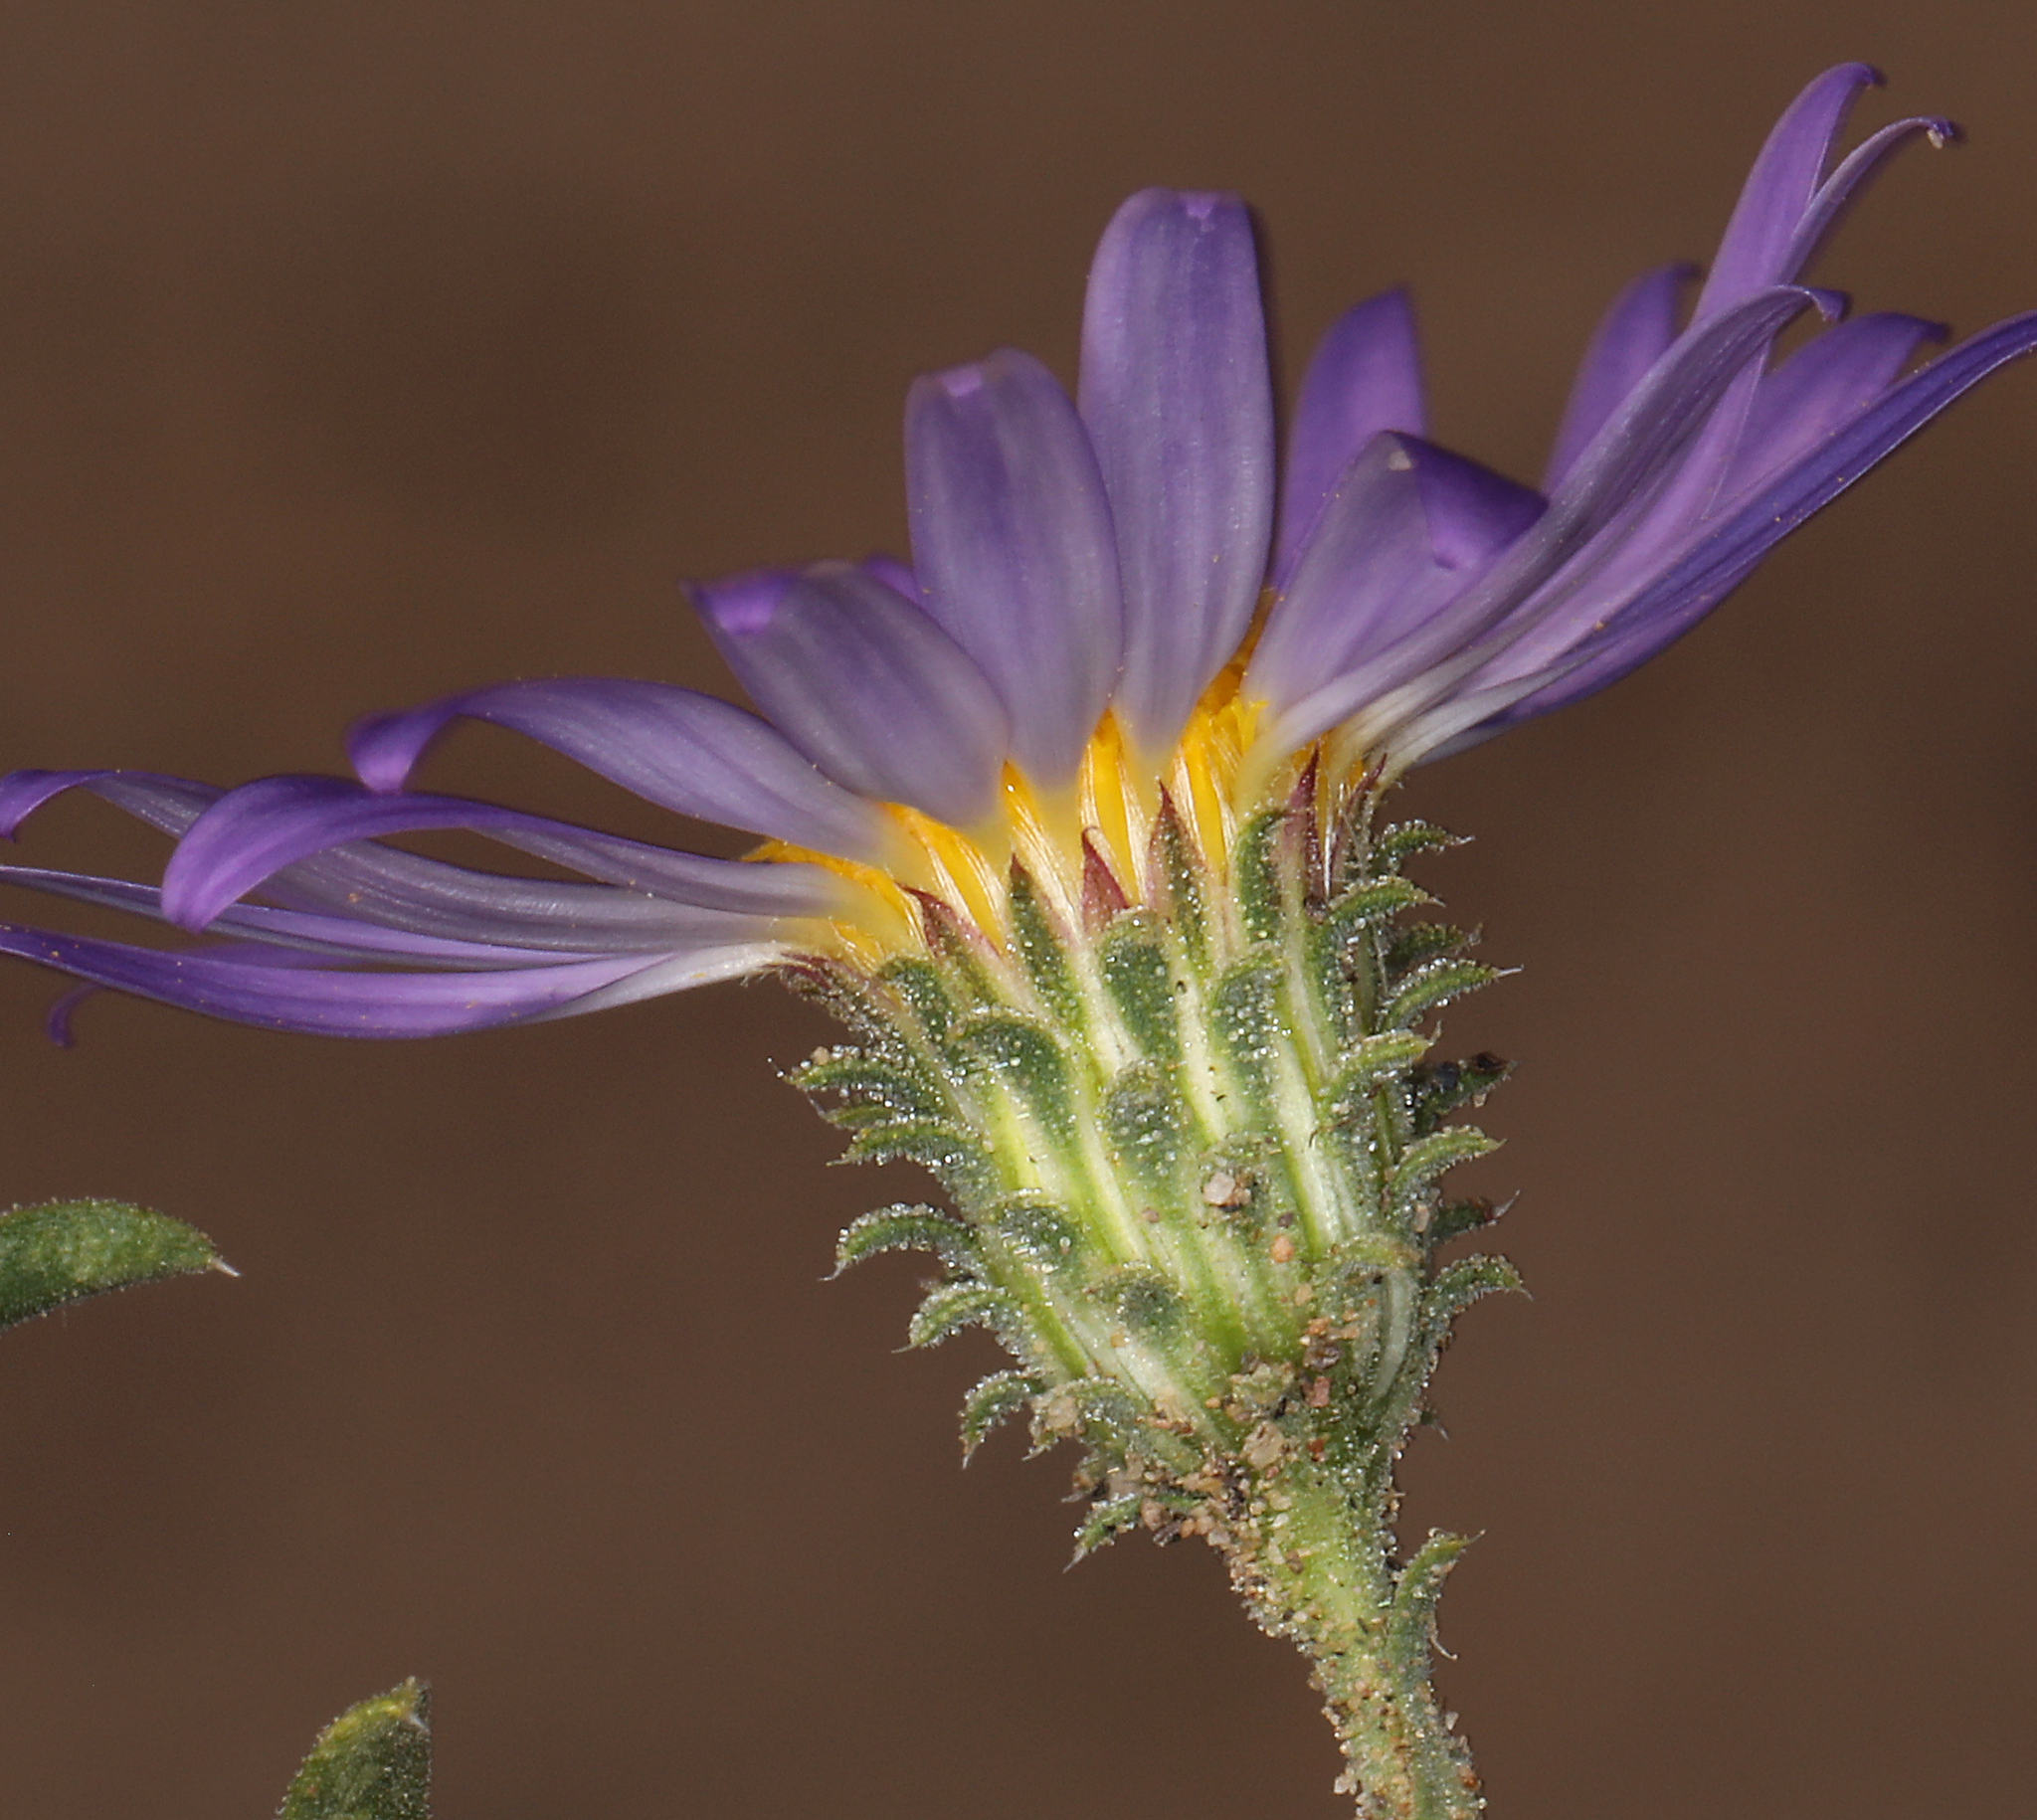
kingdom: Plantae
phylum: Tracheophyta
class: Magnoliopsida
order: Asterales
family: Asteraceae
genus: Dieteria
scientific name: Dieteria canescens
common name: Hoary-aster
